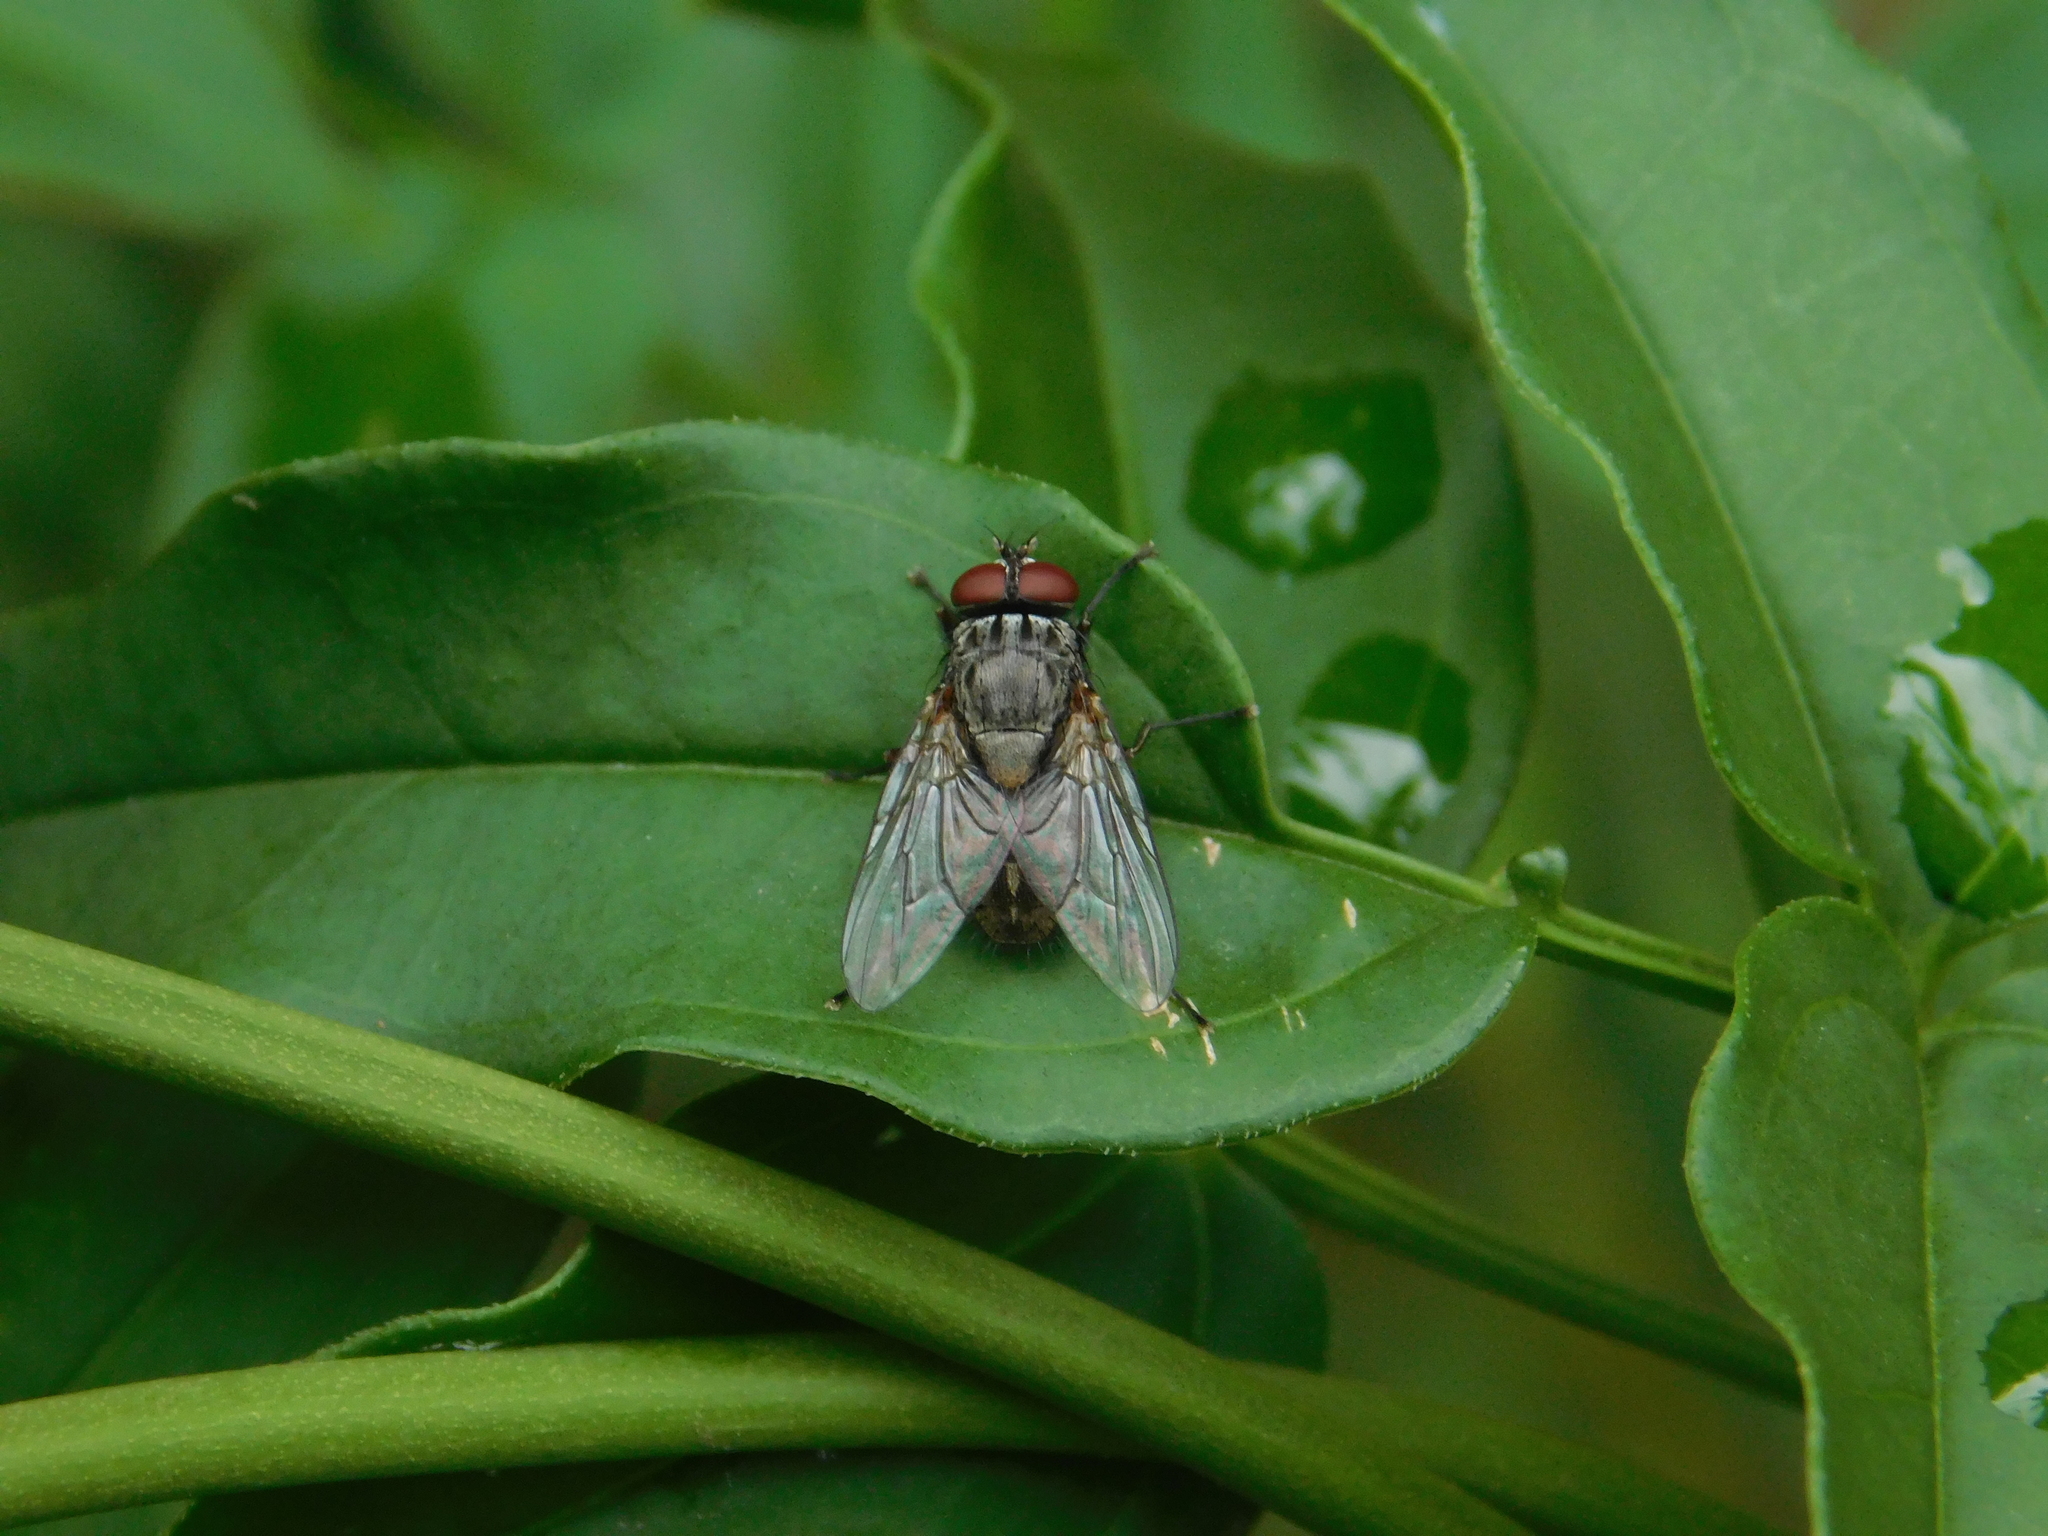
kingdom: Animalia
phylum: Arthropoda
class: Insecta
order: Diptera
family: Muscidae
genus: Muscina
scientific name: Muscina stabulans
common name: False stable fly
